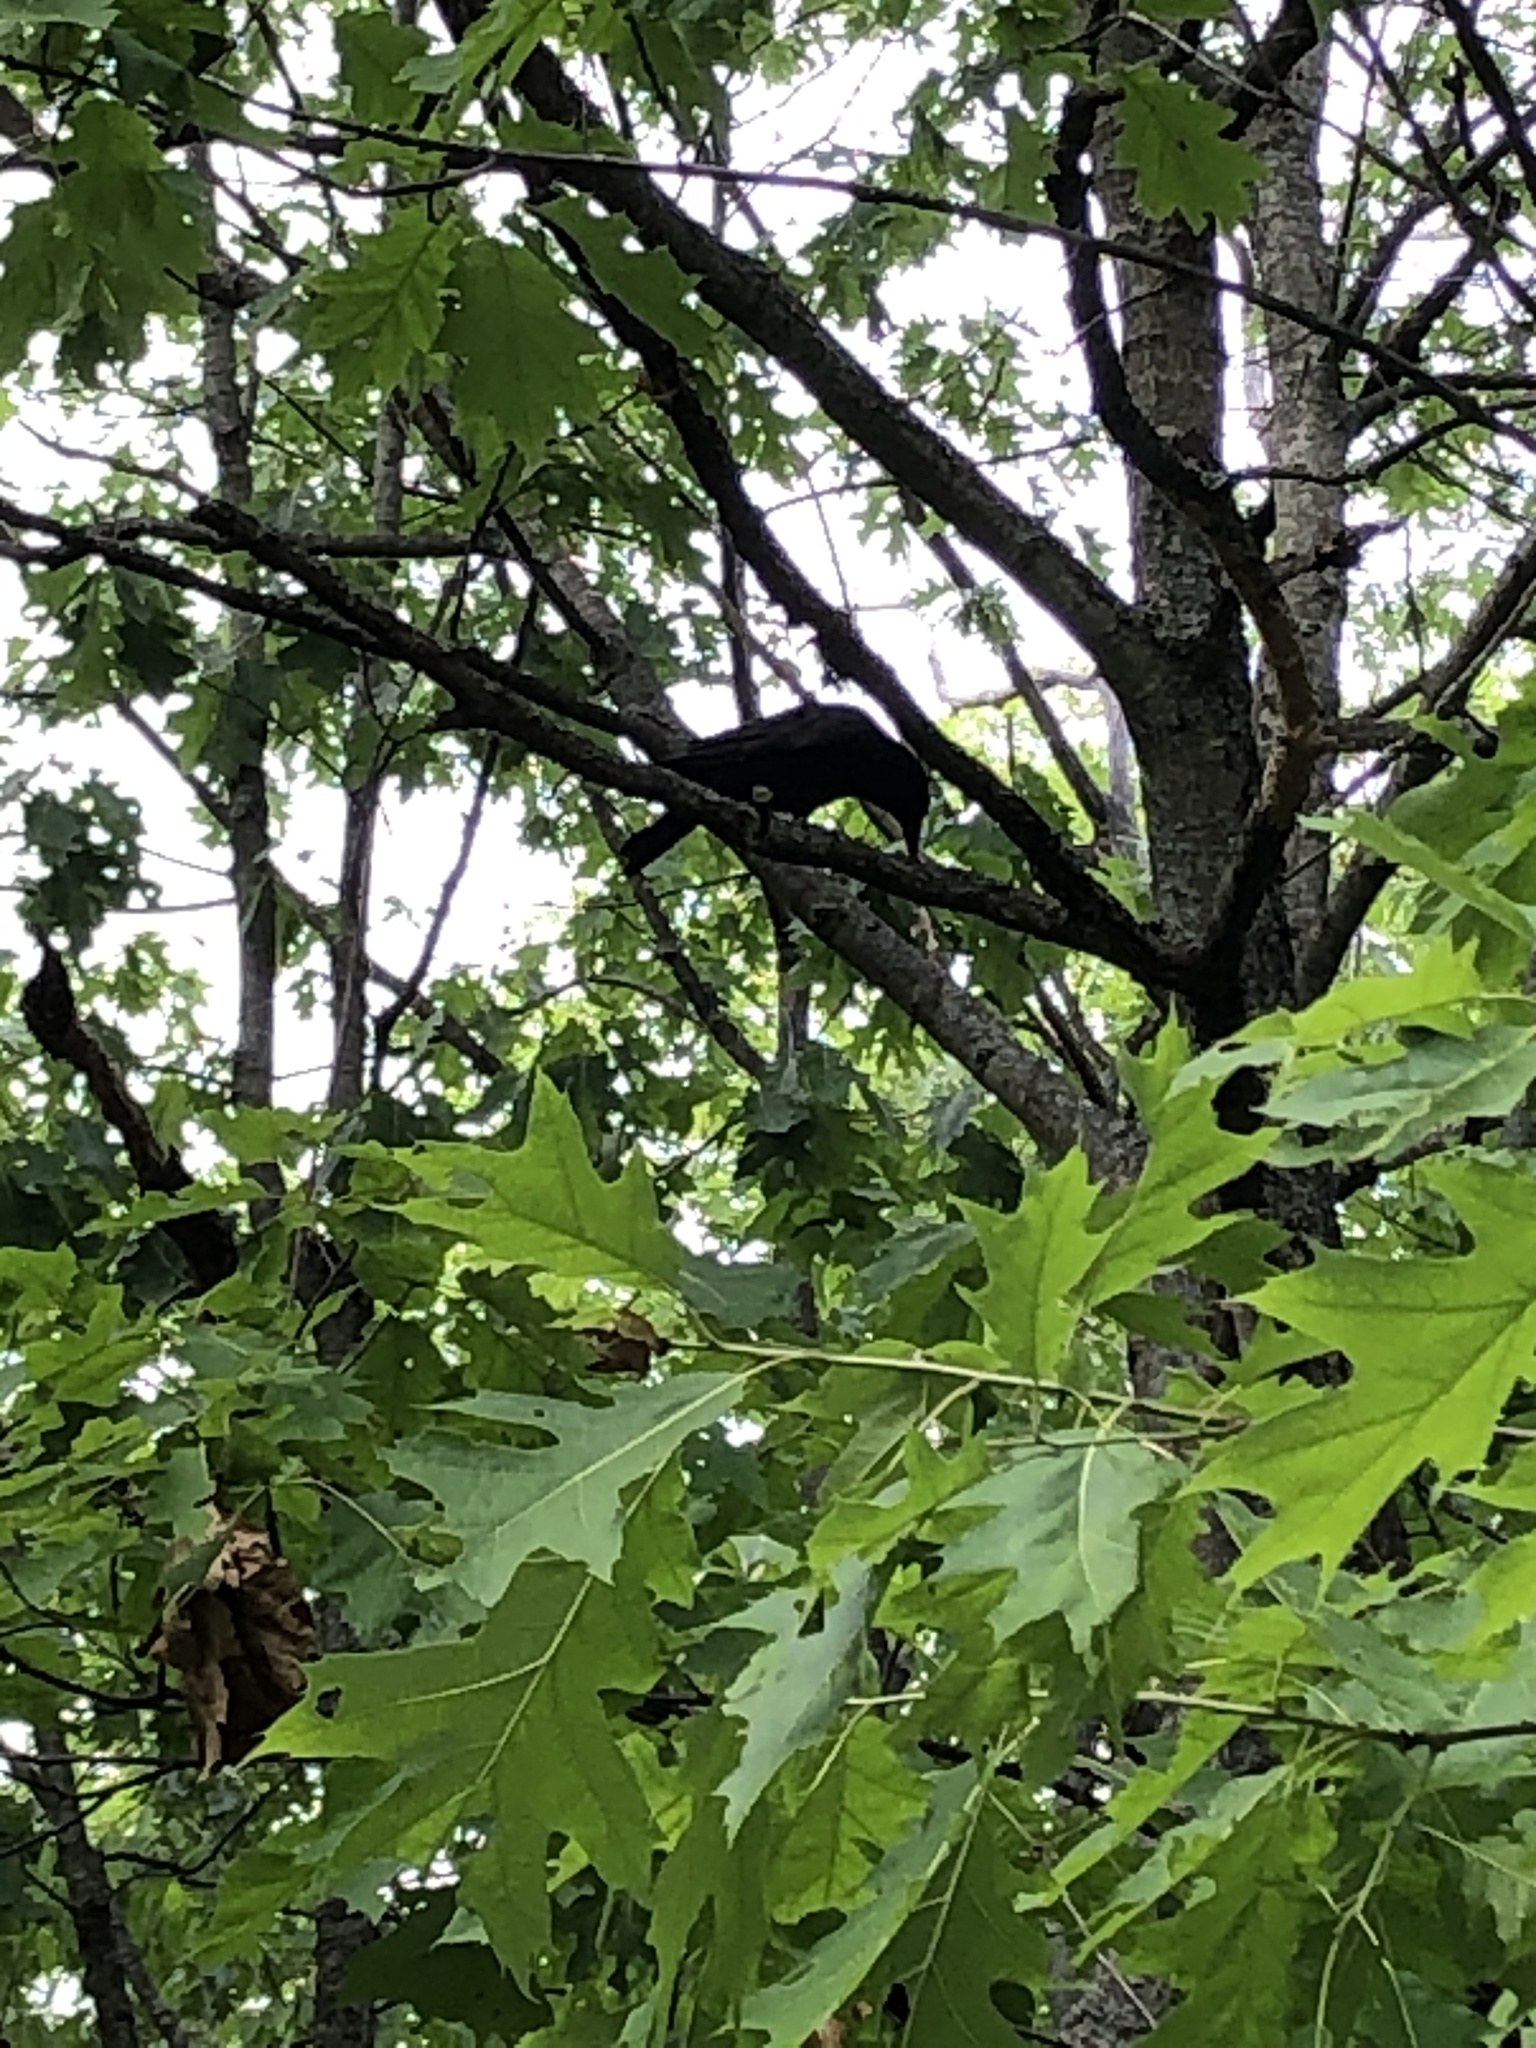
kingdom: Animalia
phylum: Chordata
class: Aves
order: Passeriformes
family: Corvidae
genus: Corvus
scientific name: Corvus brachyrhynchos
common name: American crow
